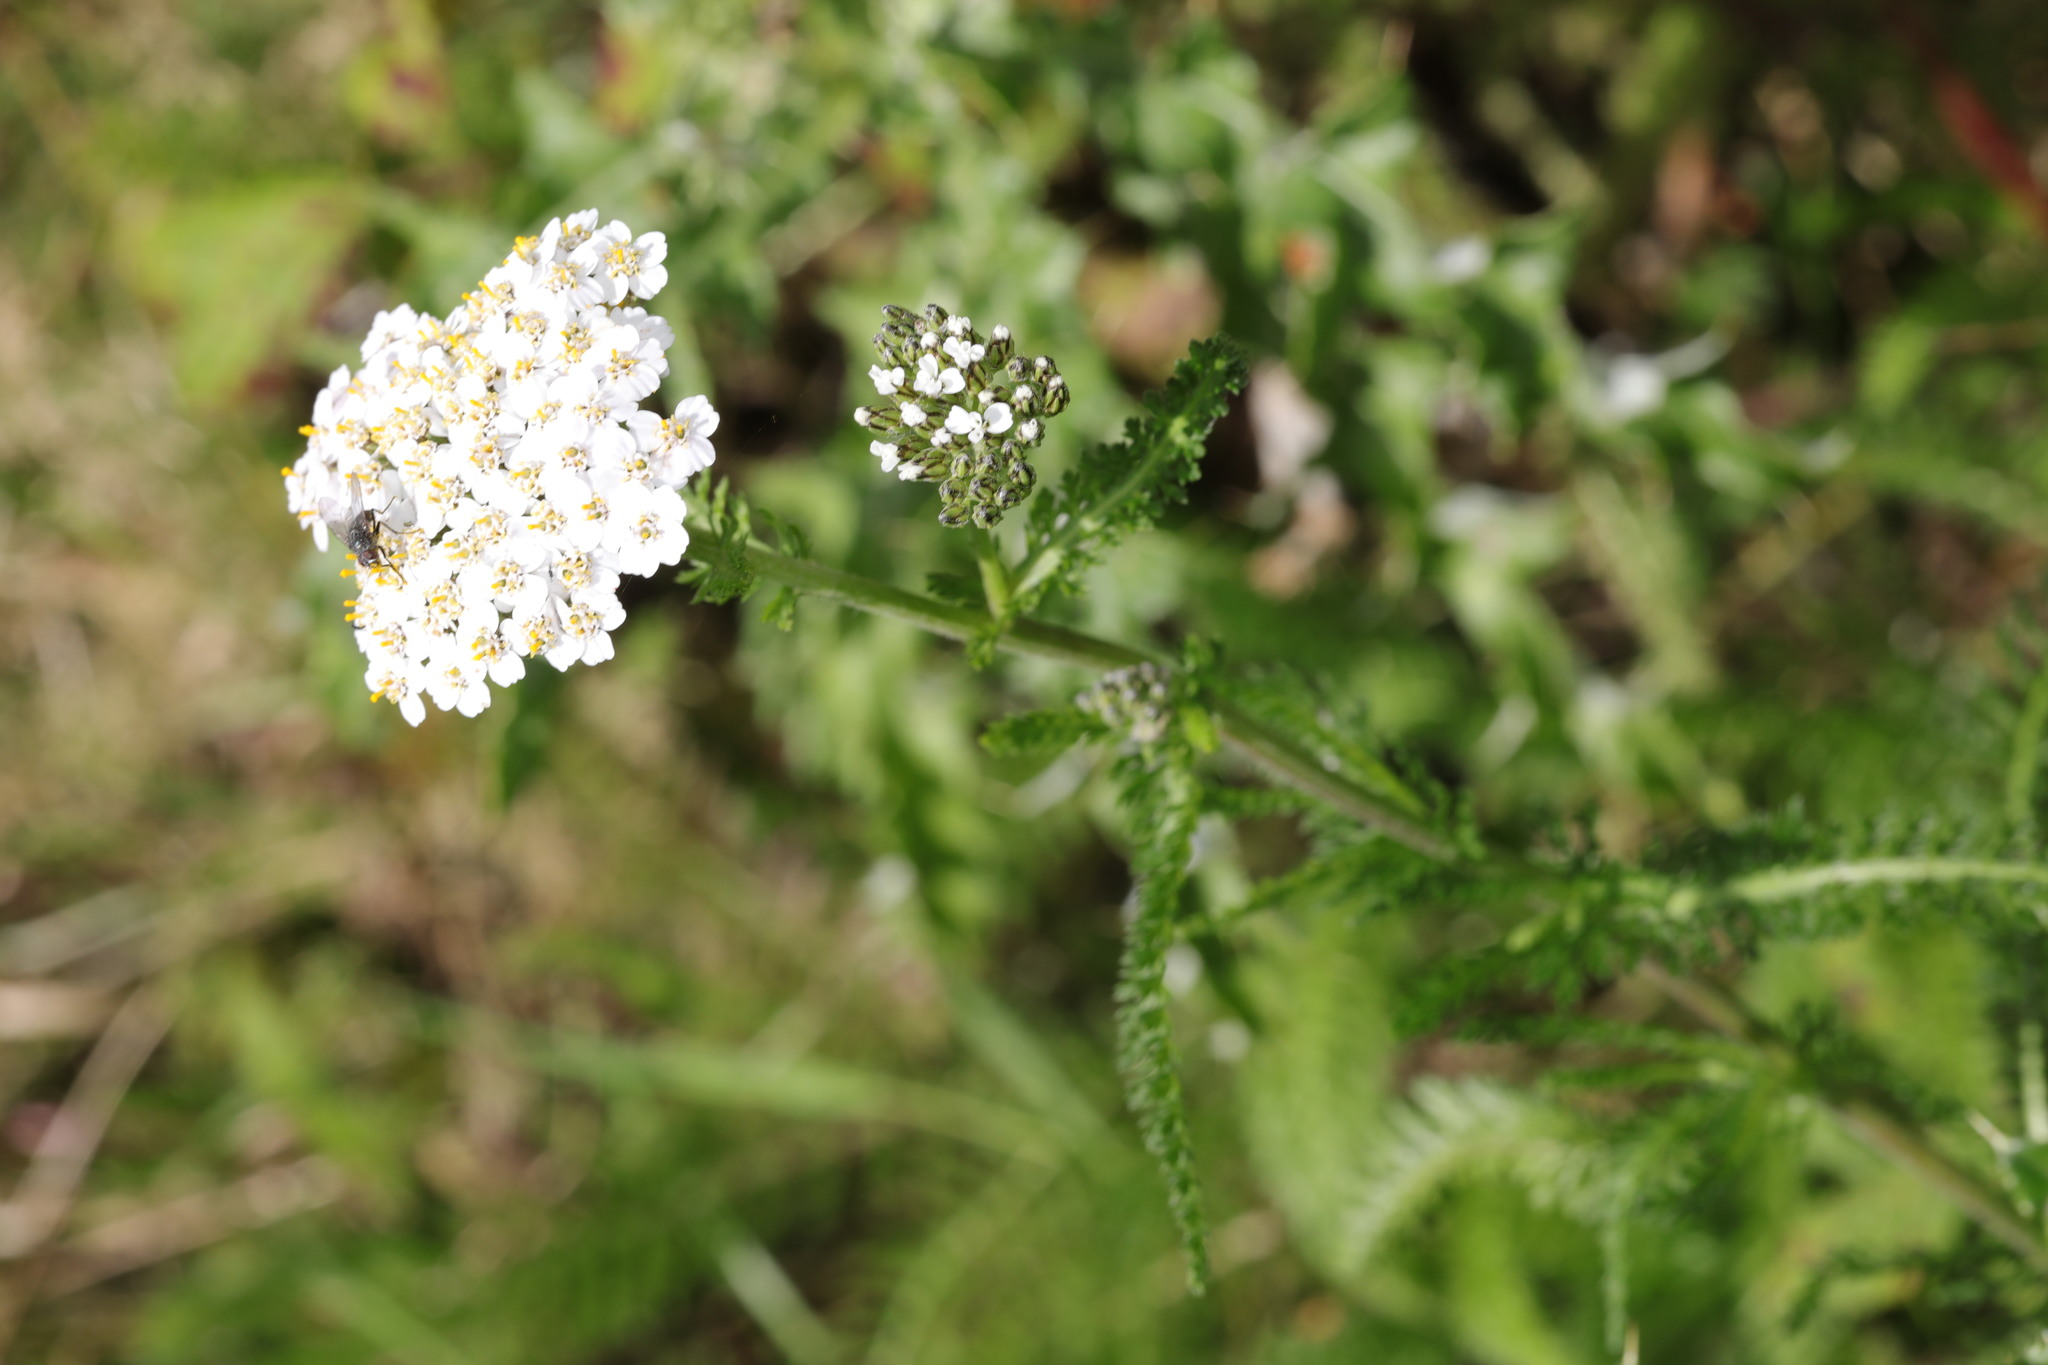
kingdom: Plantae
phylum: Tracheophyta
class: Magnoliopsida
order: Asterales
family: Asteraceae
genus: Achillea
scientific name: Achillea millefolium
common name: Yarrow
